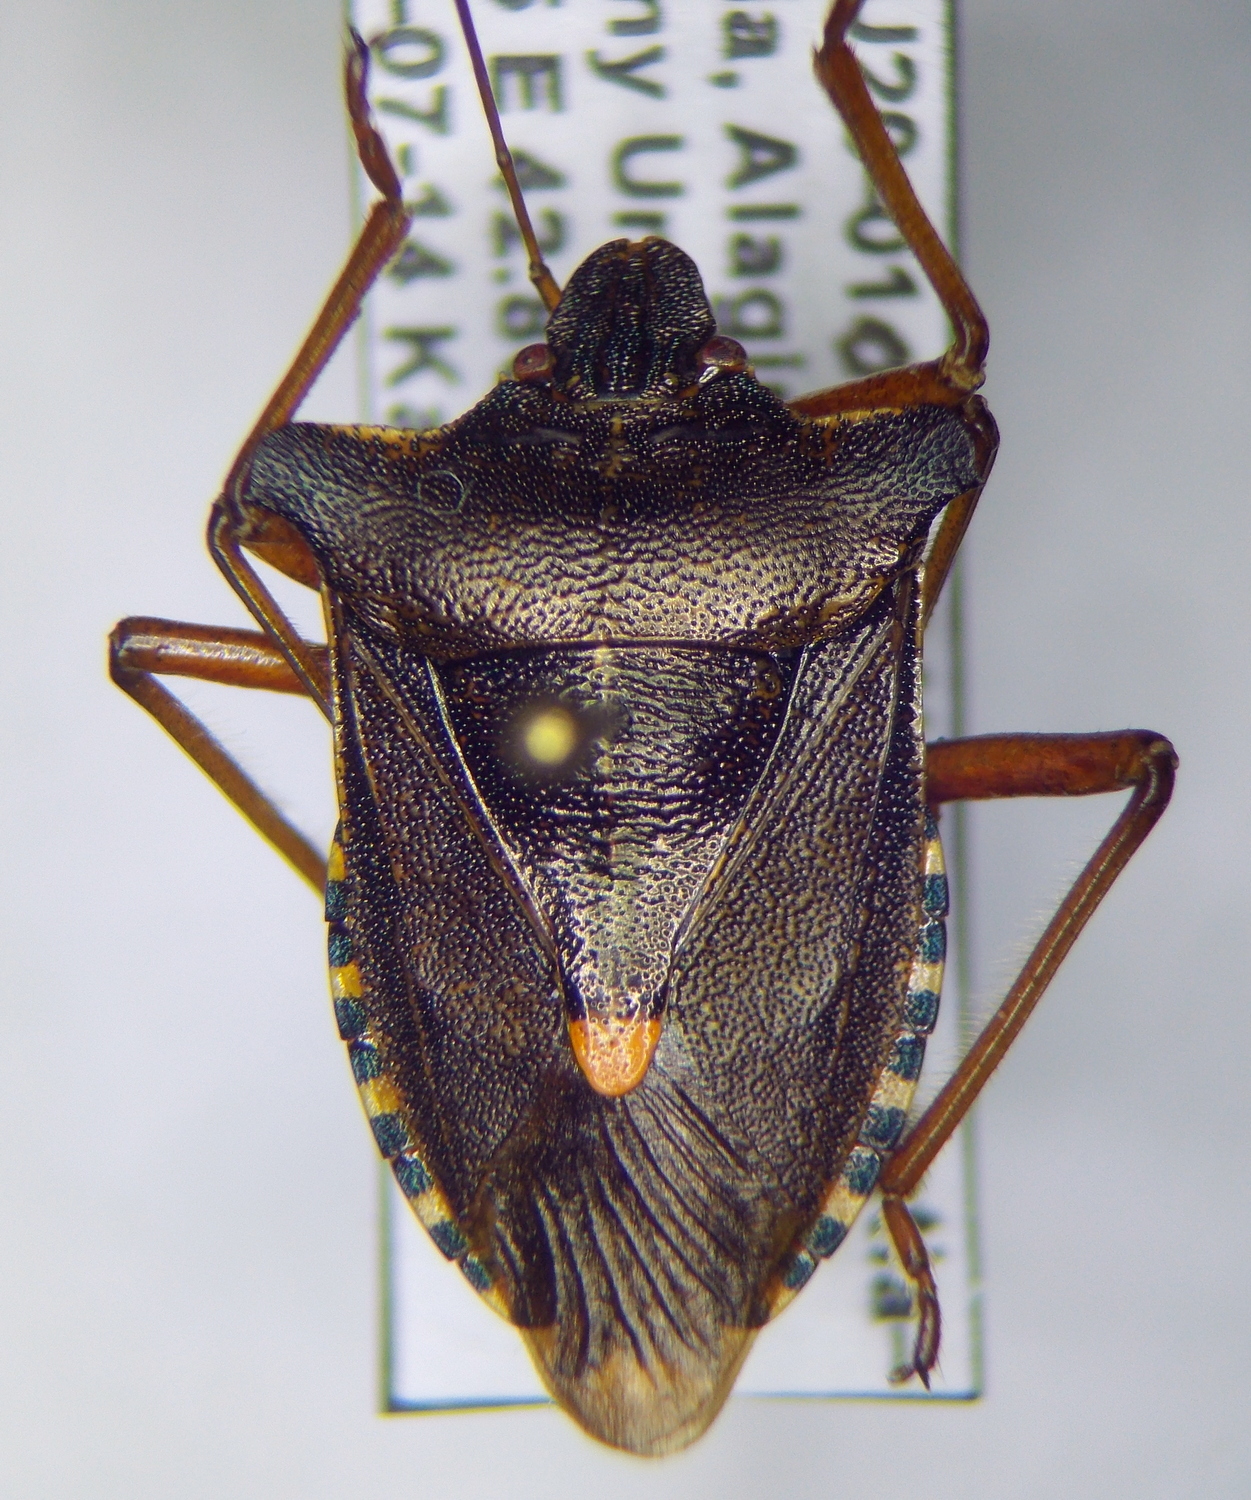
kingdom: Animalia
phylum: Arthropoda
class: Insecta
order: Hemiptera
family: Pentatomidae
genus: Pentatoma
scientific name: Pentatoma rufipes
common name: Forest bug
